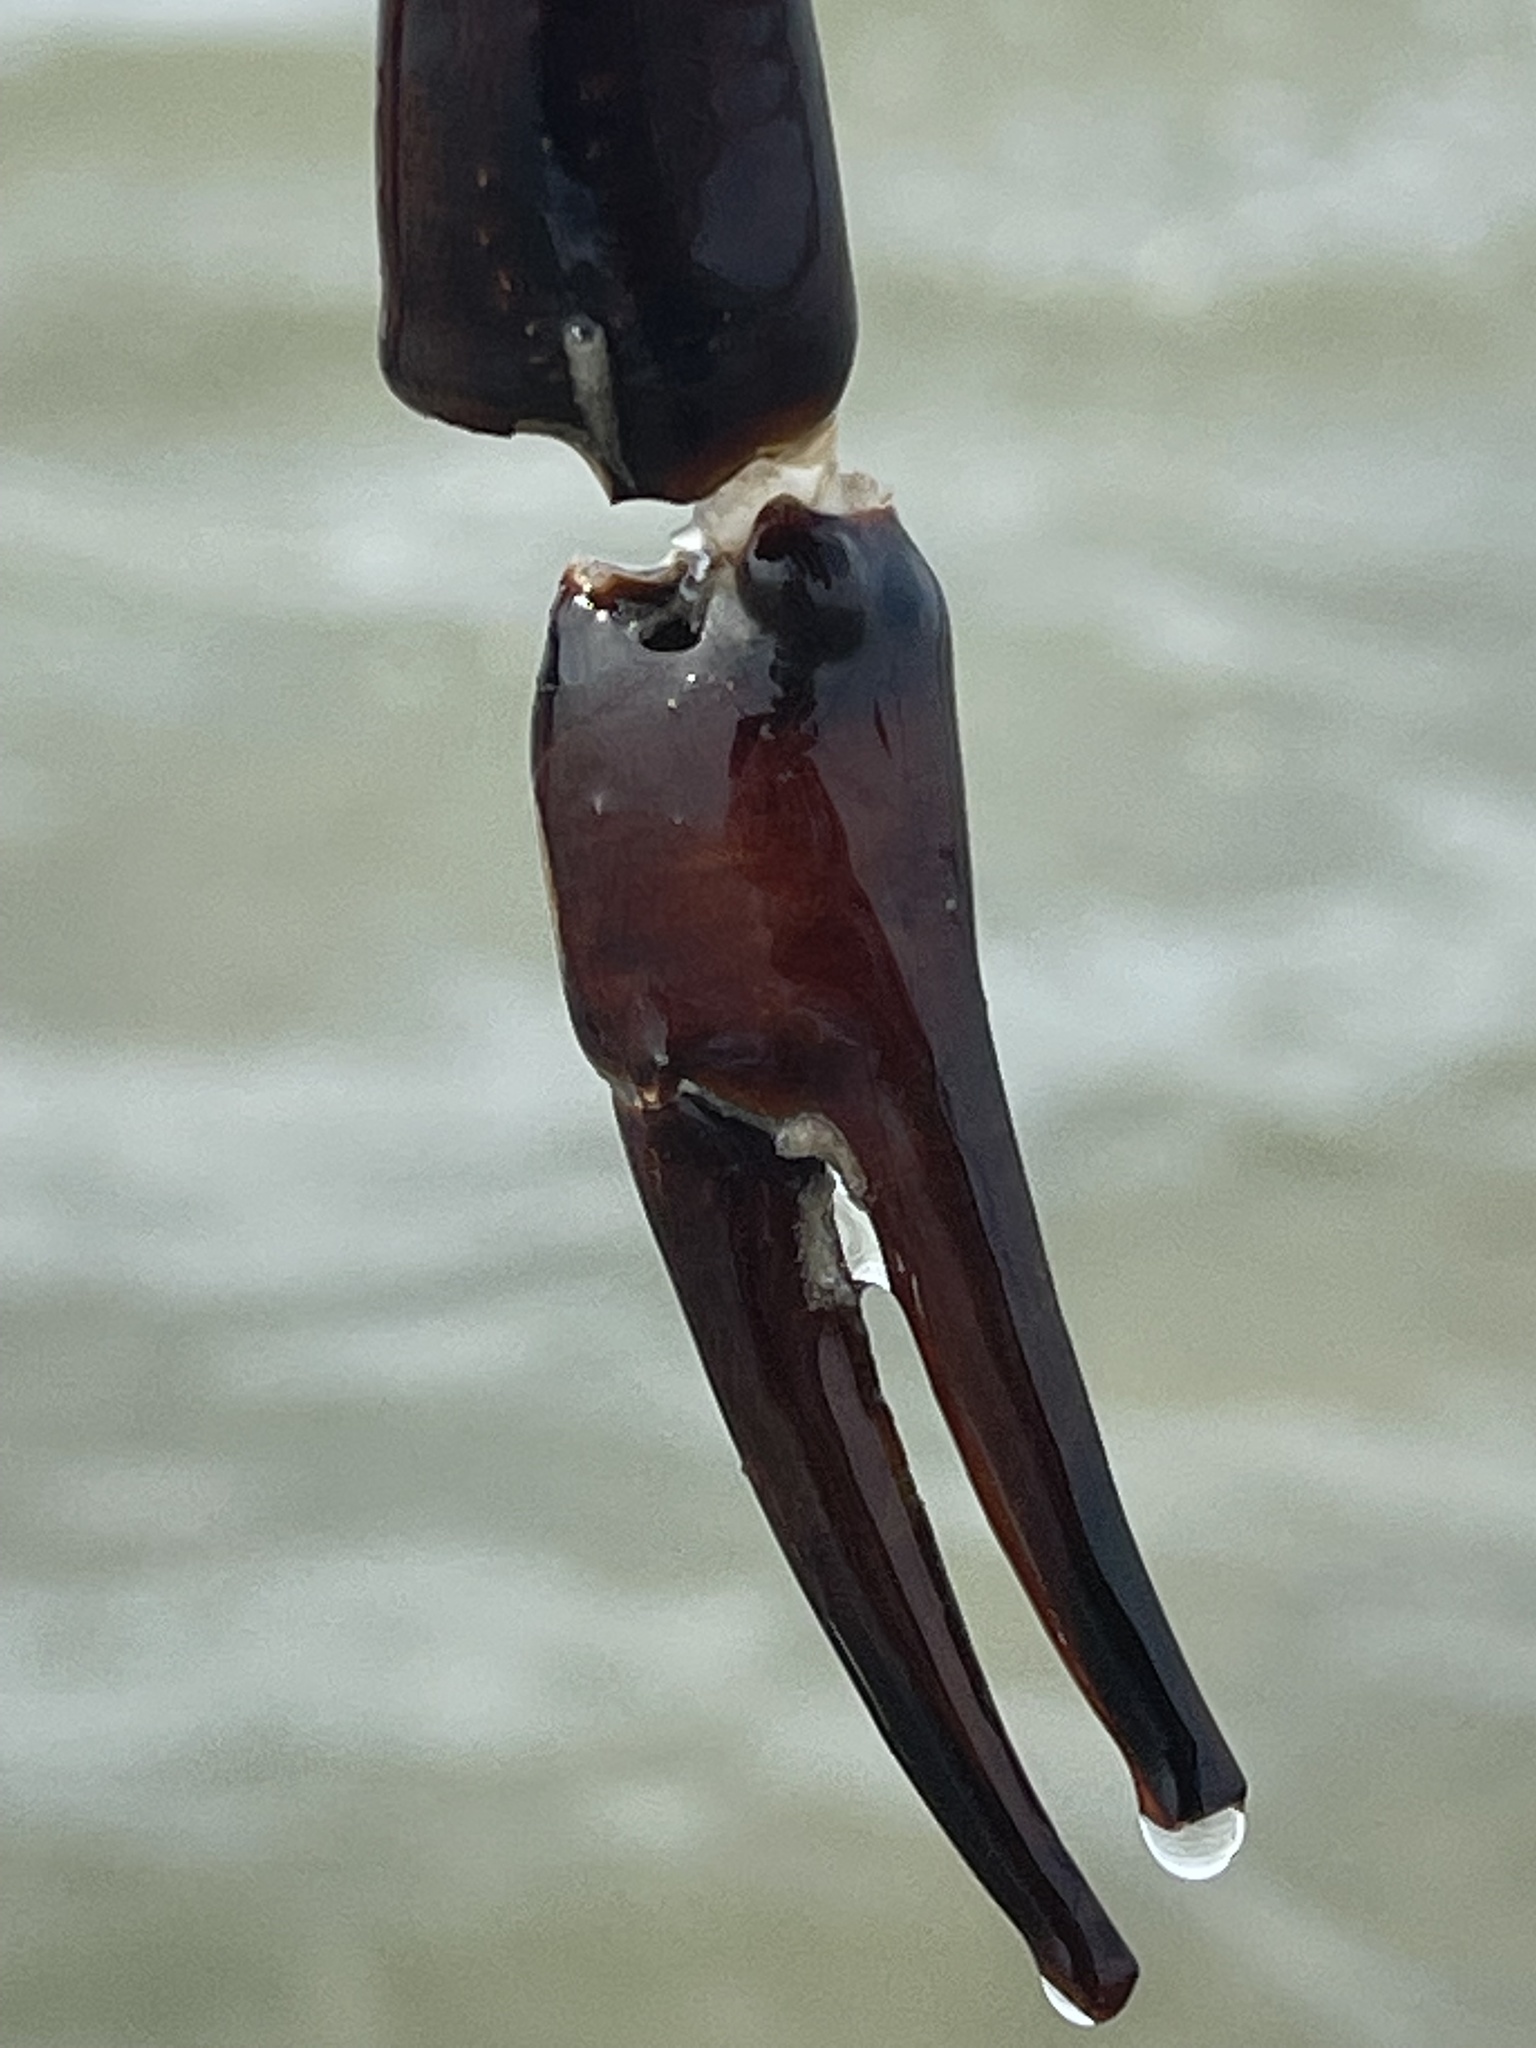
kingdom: Animalia
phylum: Arthropoda
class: Merostomata
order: Xiphosurida
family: Limulidae
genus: Limulus
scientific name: Limulus polyphemus
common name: Horseshoe crab
